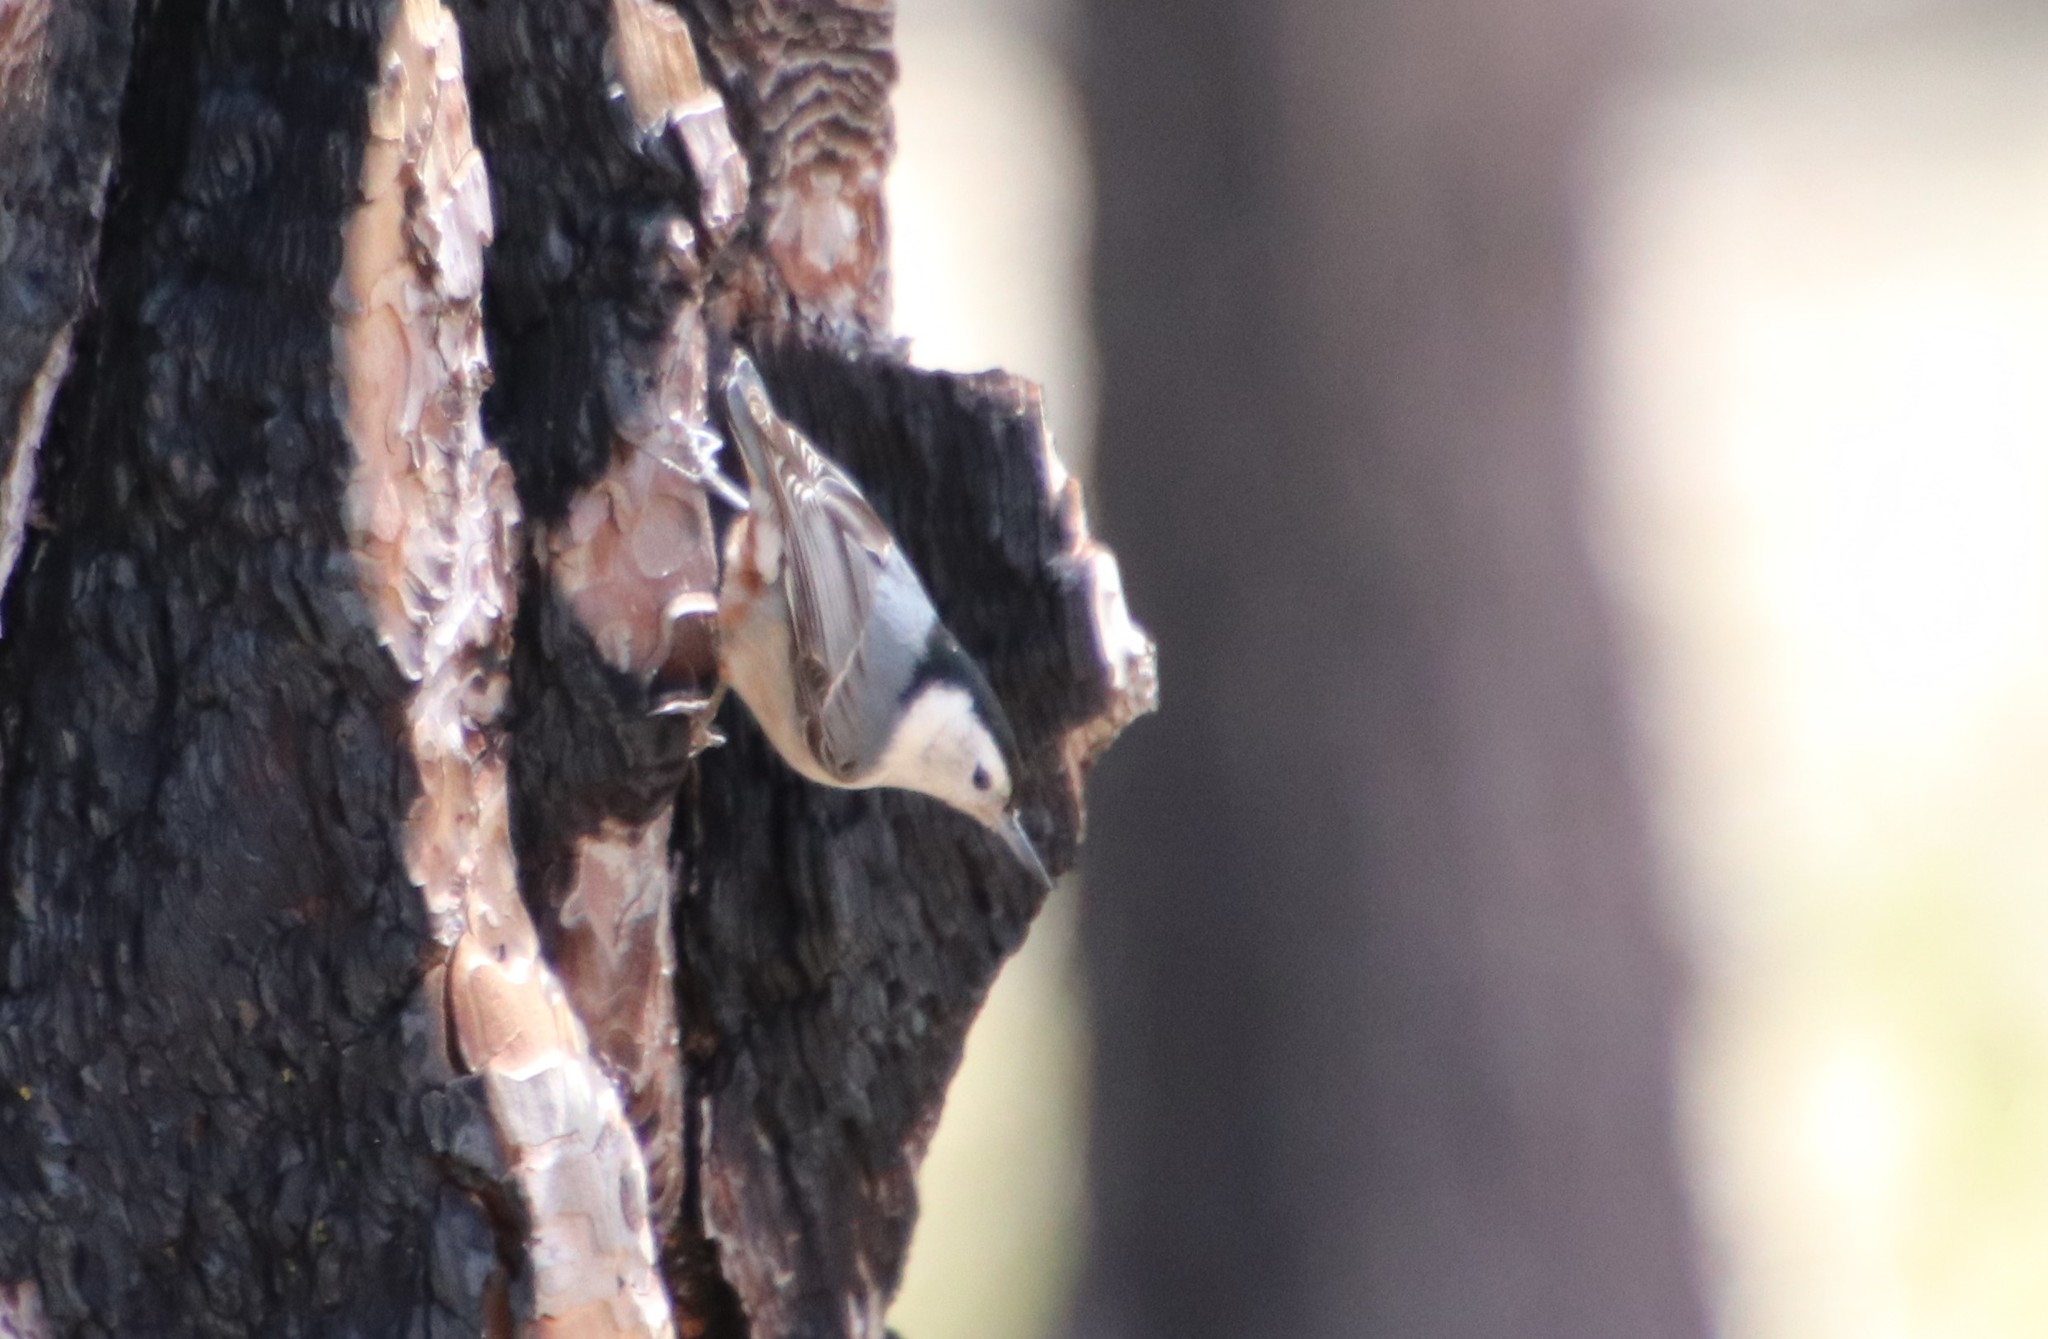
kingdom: Animalia
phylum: Chordata
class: Aves
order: Passeriformes
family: Sittidae
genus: Sitta
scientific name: Sitta carolinensis
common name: White-breasted nuthatch
